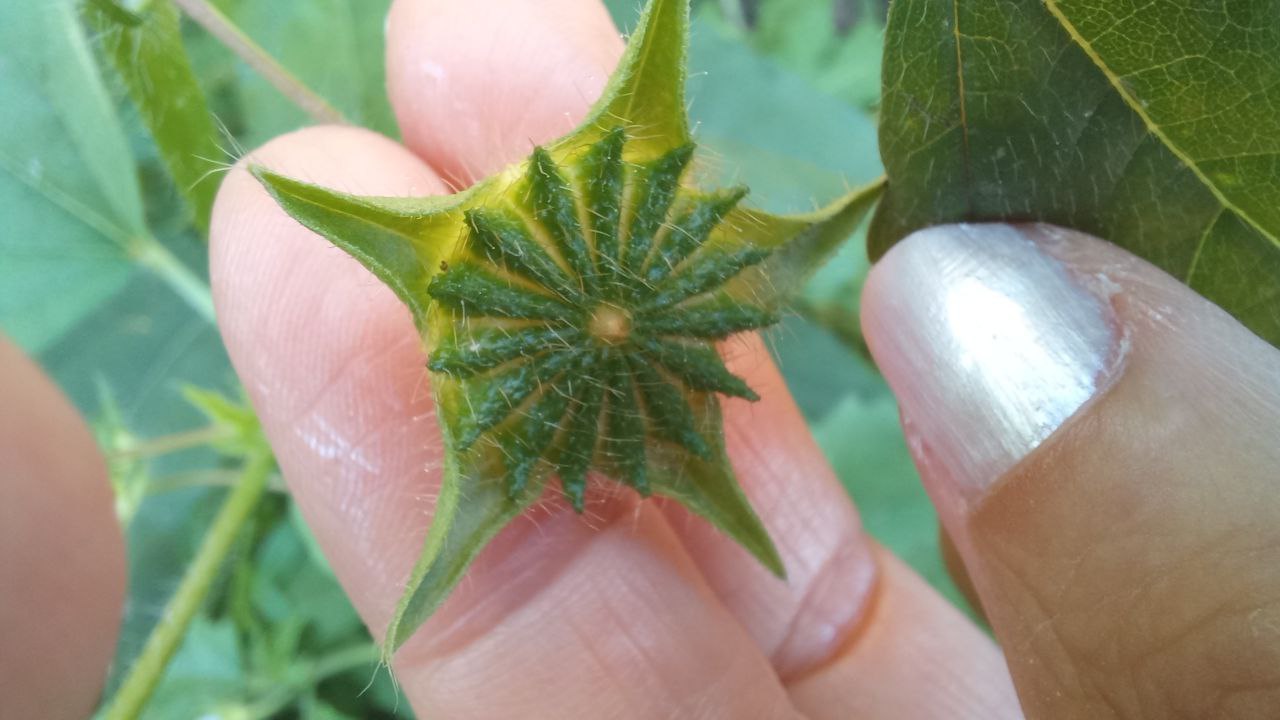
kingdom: Plantae
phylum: Tracheophyta
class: Magnoliopsida
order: Malvales
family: Malvaceae
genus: Anoda
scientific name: Anoda cristata
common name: Spurred anoda
